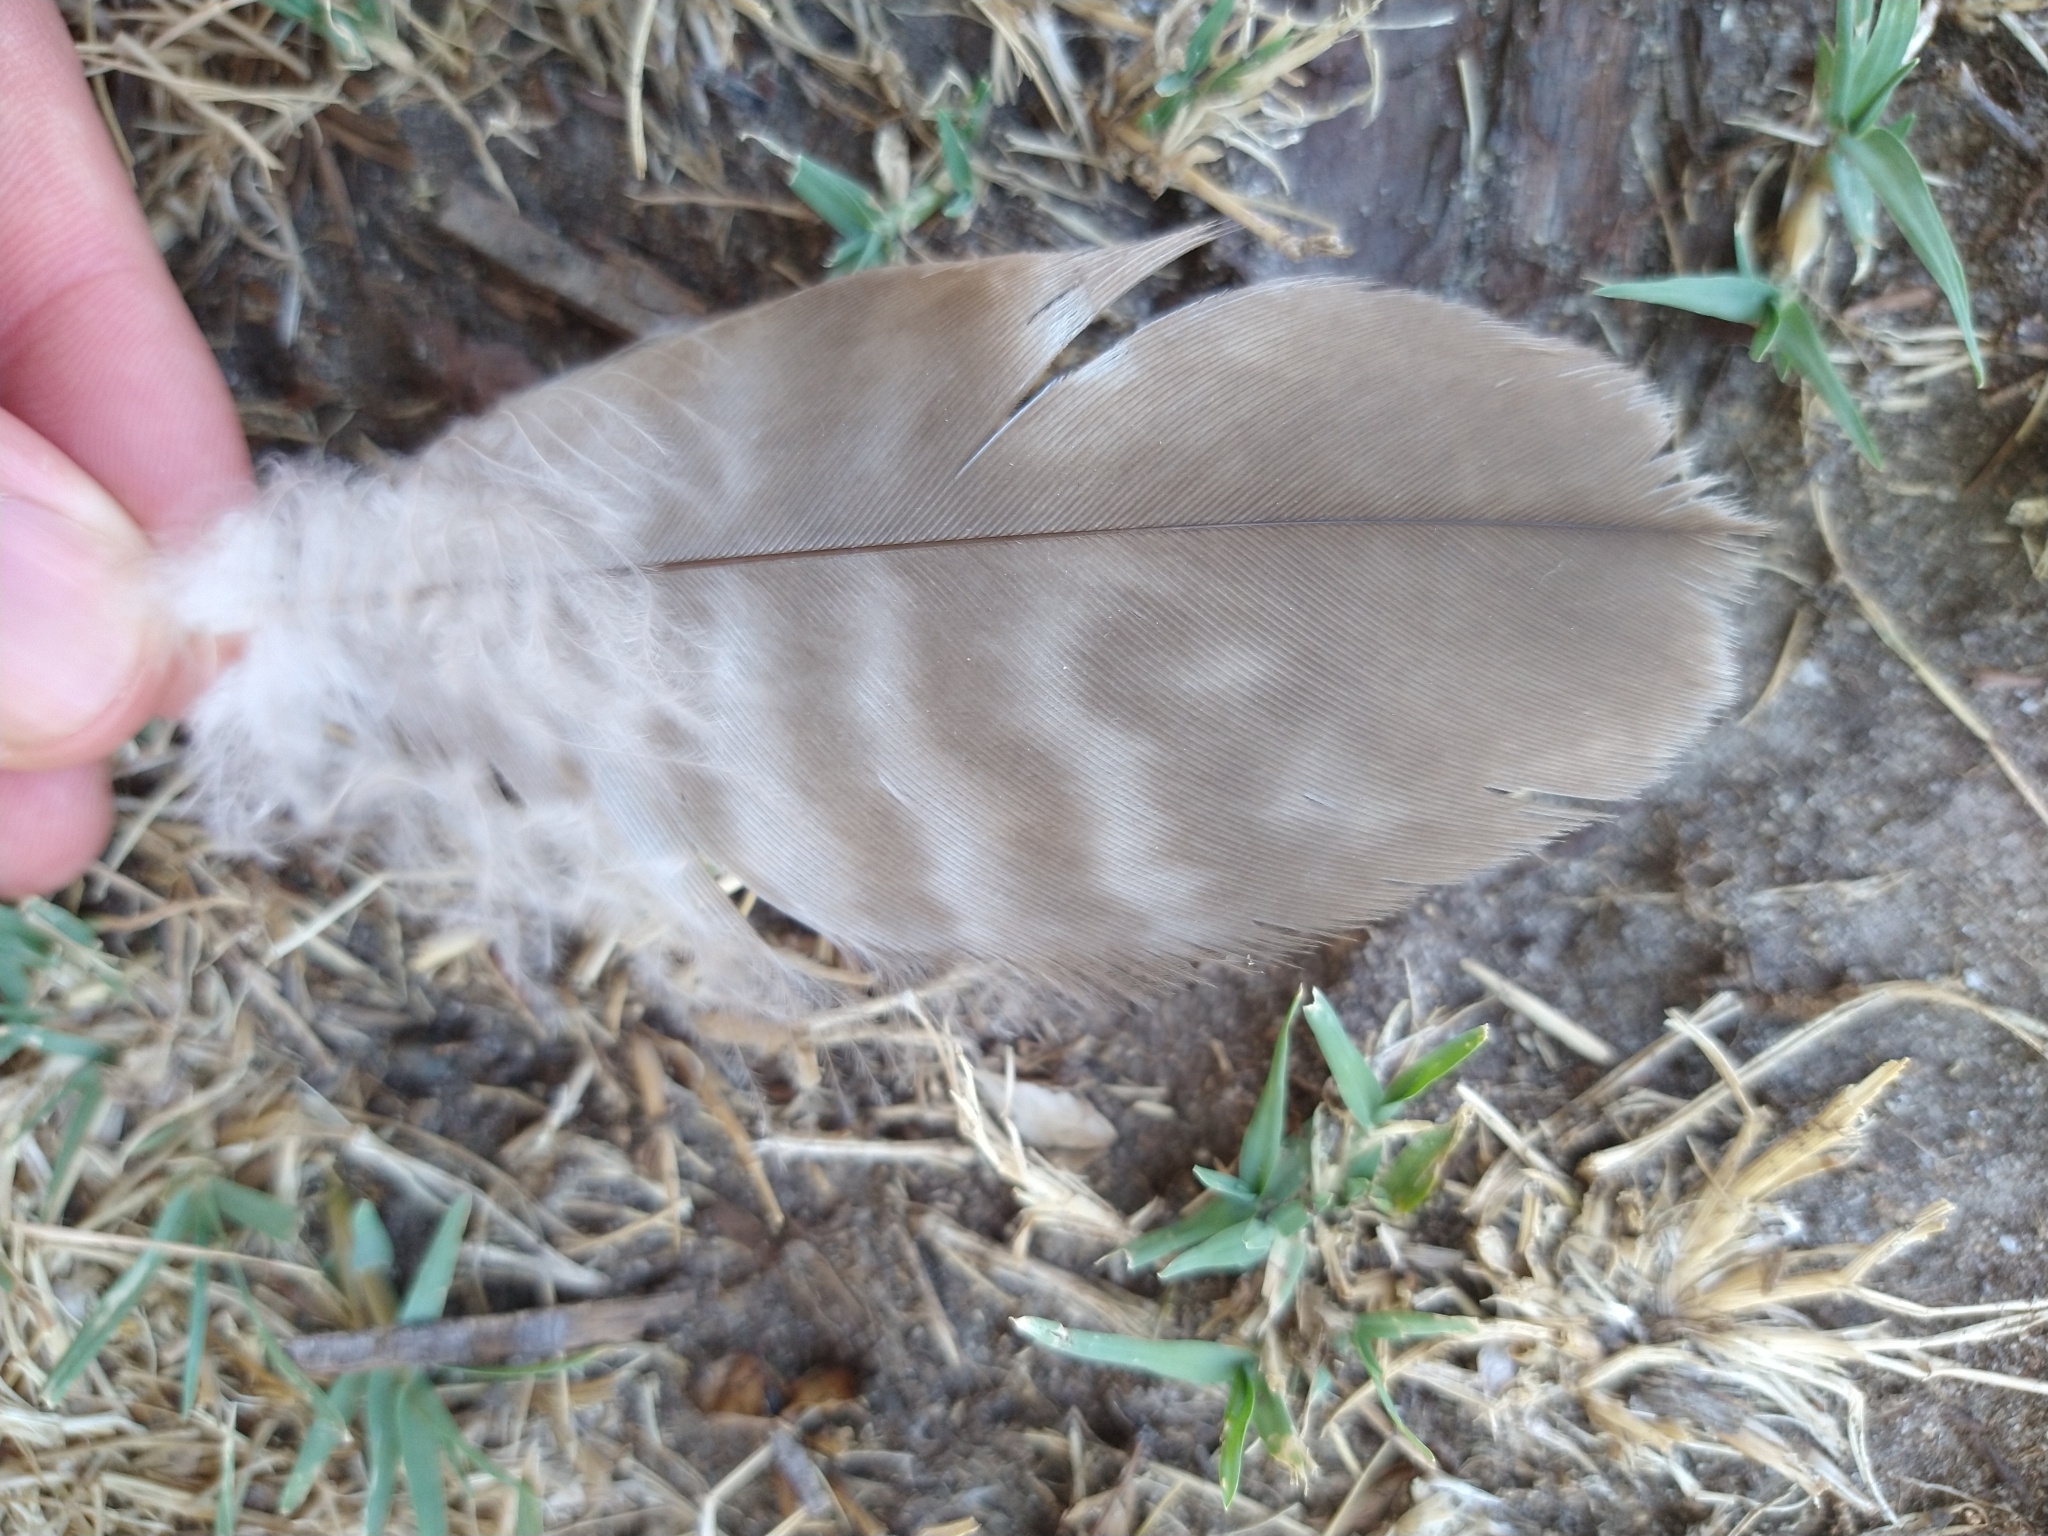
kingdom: Animalia
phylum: Chordata
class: Aves
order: Accipitriformes
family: Accipitridae
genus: Buteo
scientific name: Buteo jamaicensis
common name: Red-tailed hawk
